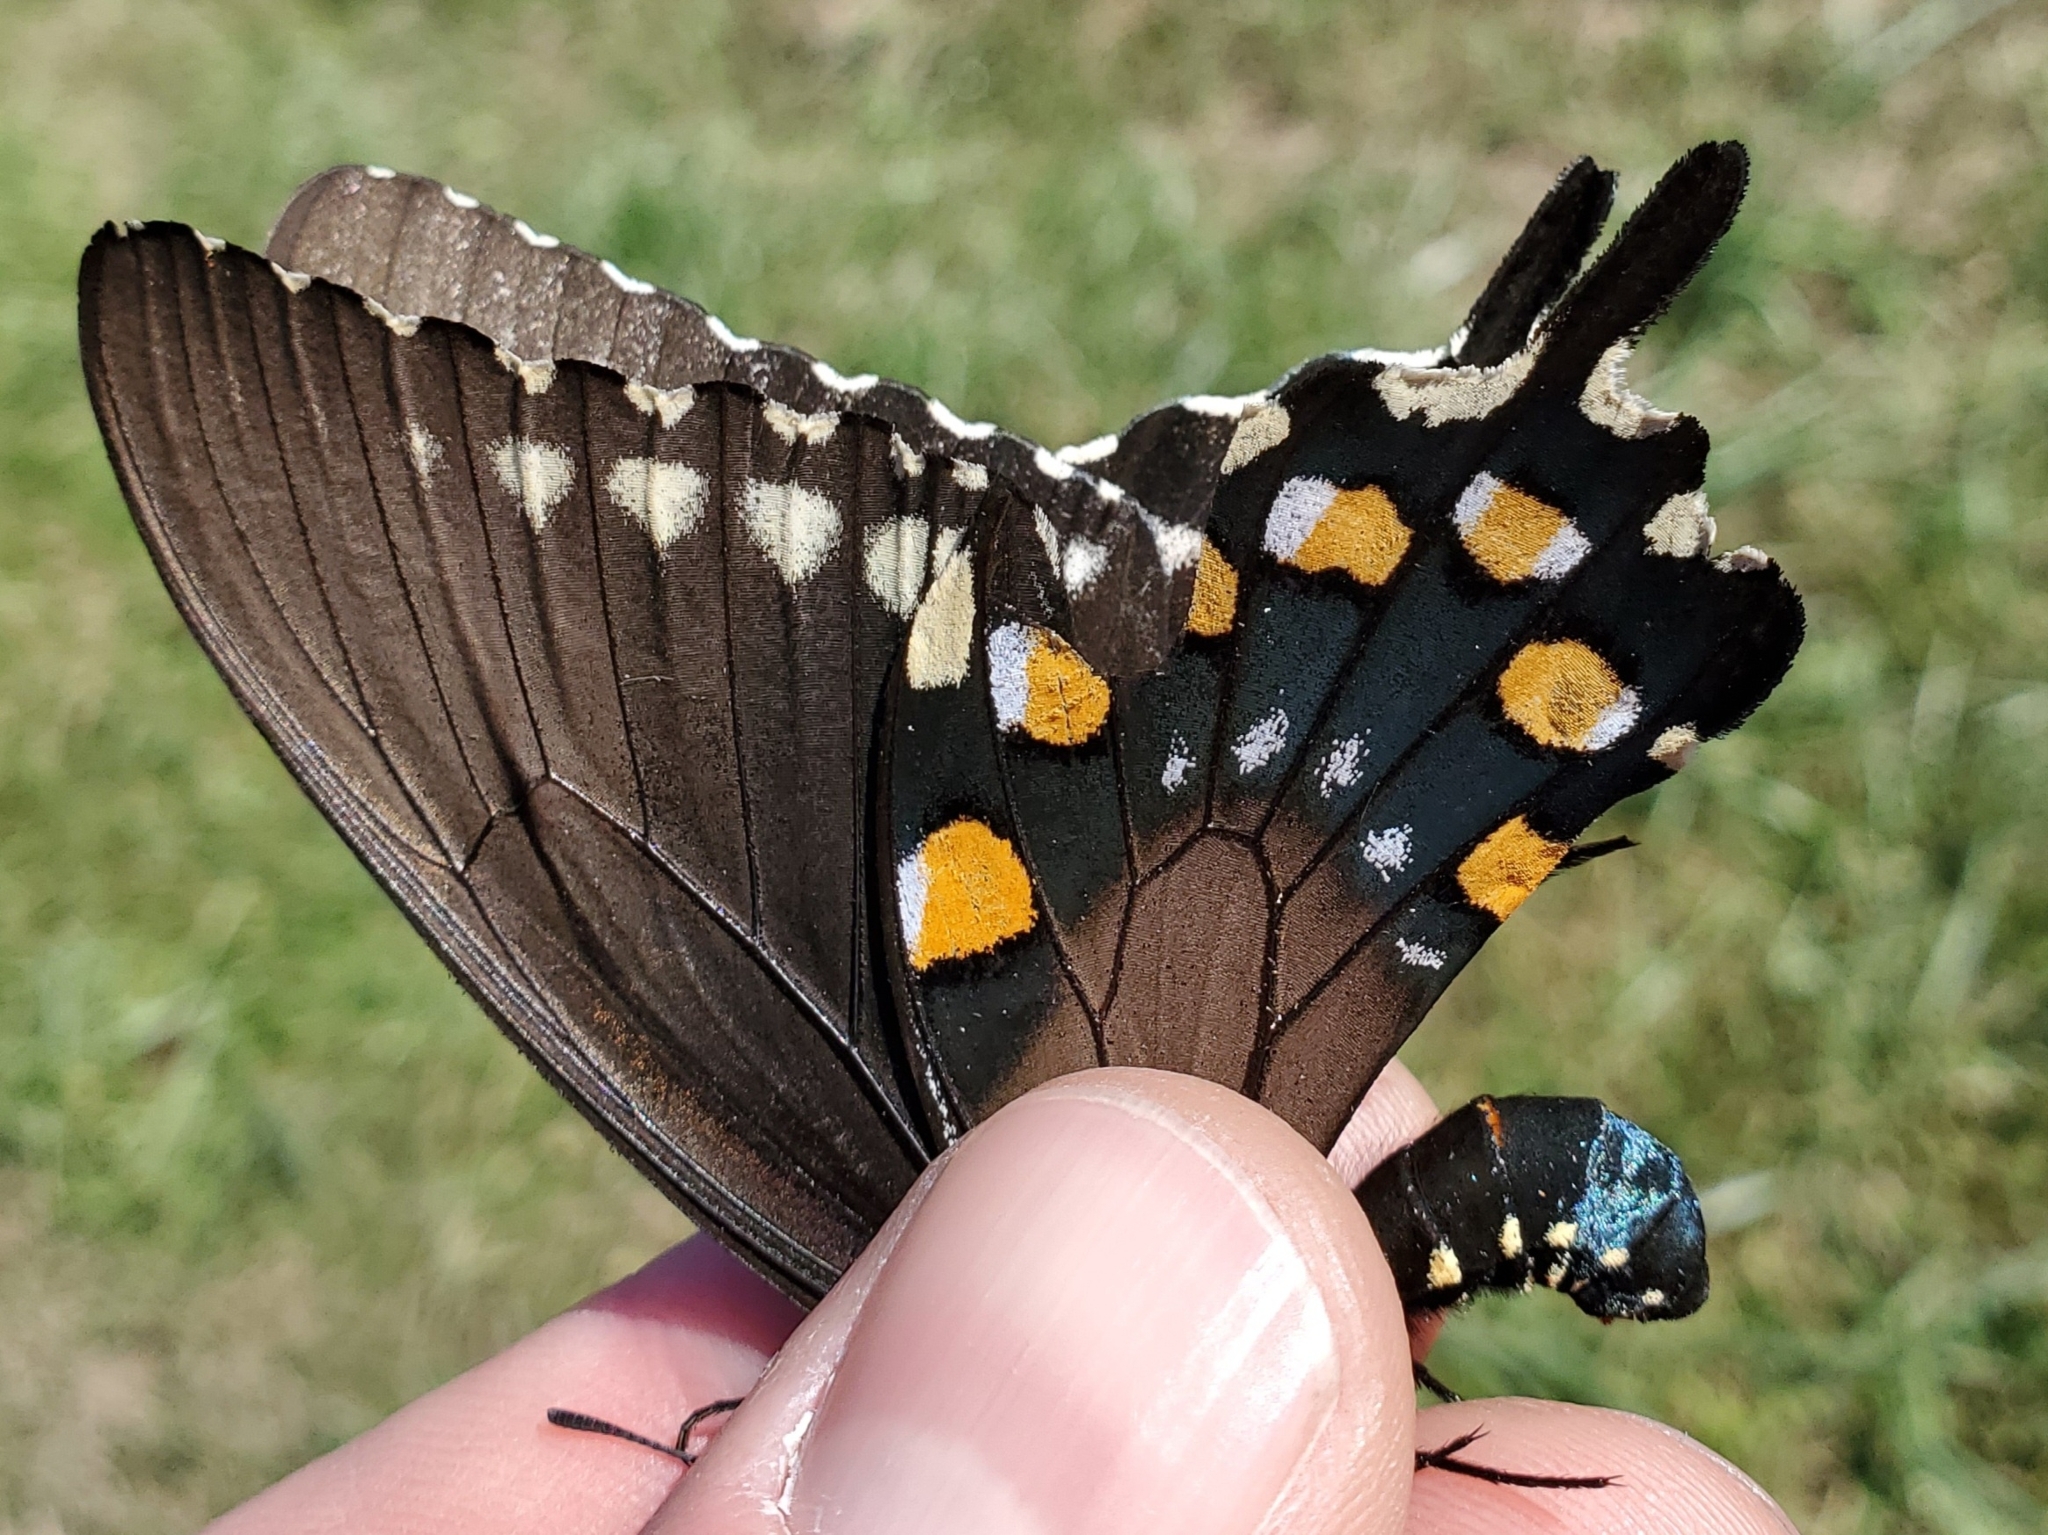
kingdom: Animalia
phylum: Arthropoda
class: Insecta
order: Lepidoptera
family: Papilionidae
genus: Battus
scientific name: Battus philenor
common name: Pipevine swallowtail
